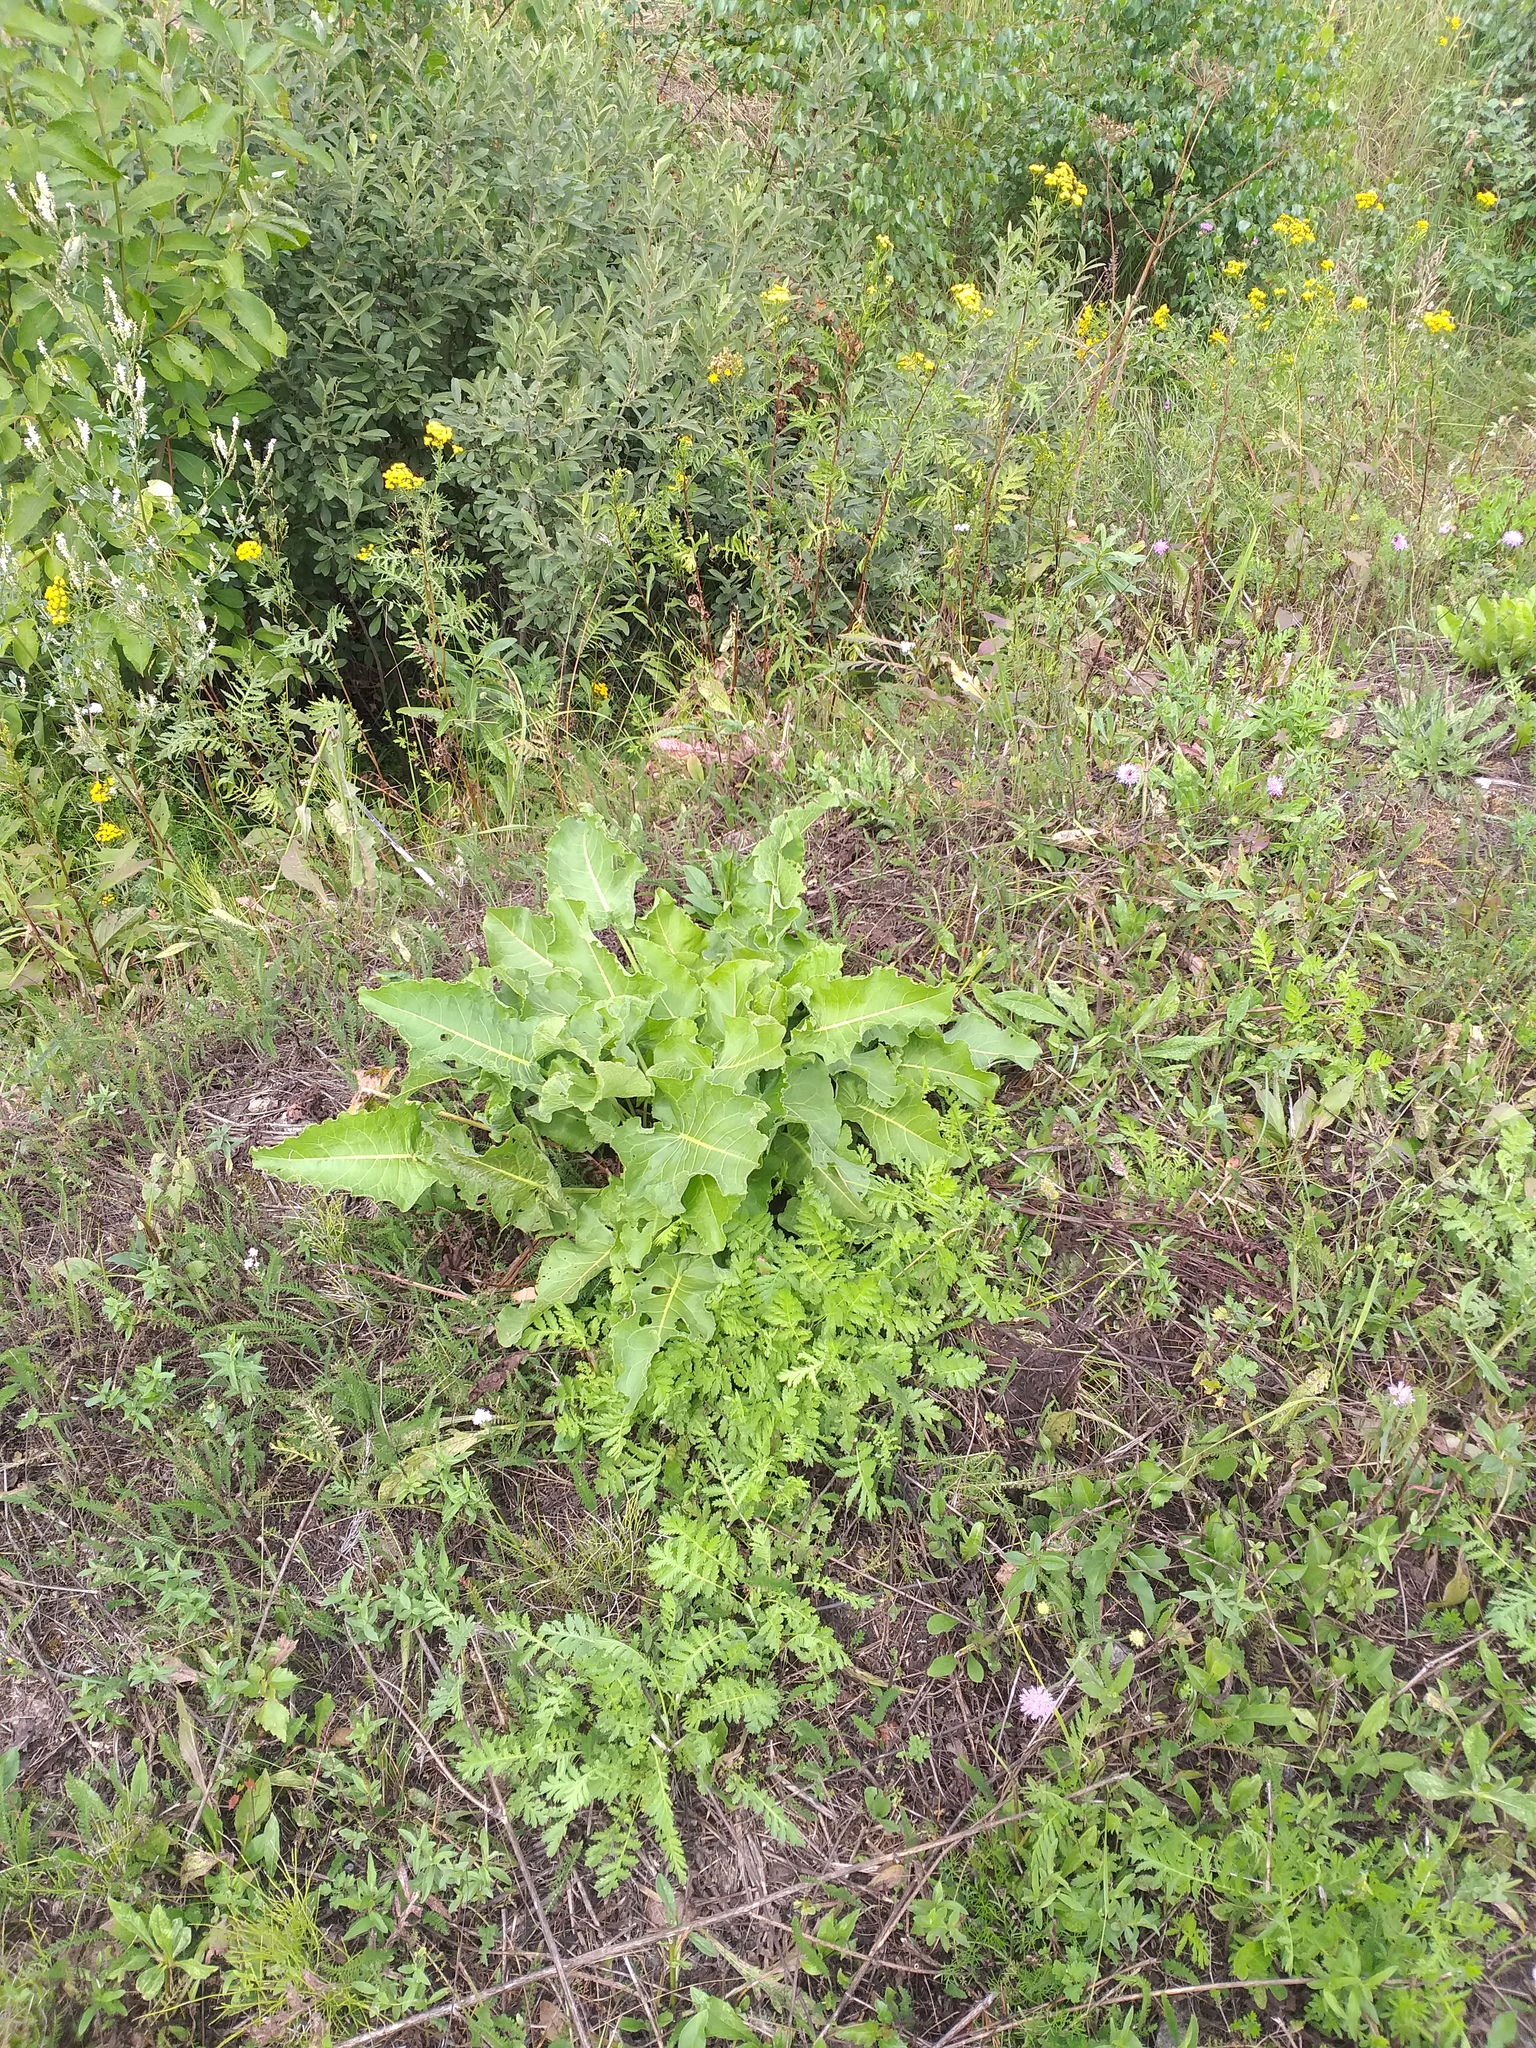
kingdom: Plantae
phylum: Tracheophyta
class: Magnoliopsida
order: Caryophyllales
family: Polygonaceae
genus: Rumex
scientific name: Rumex confertus
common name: Russian dock
